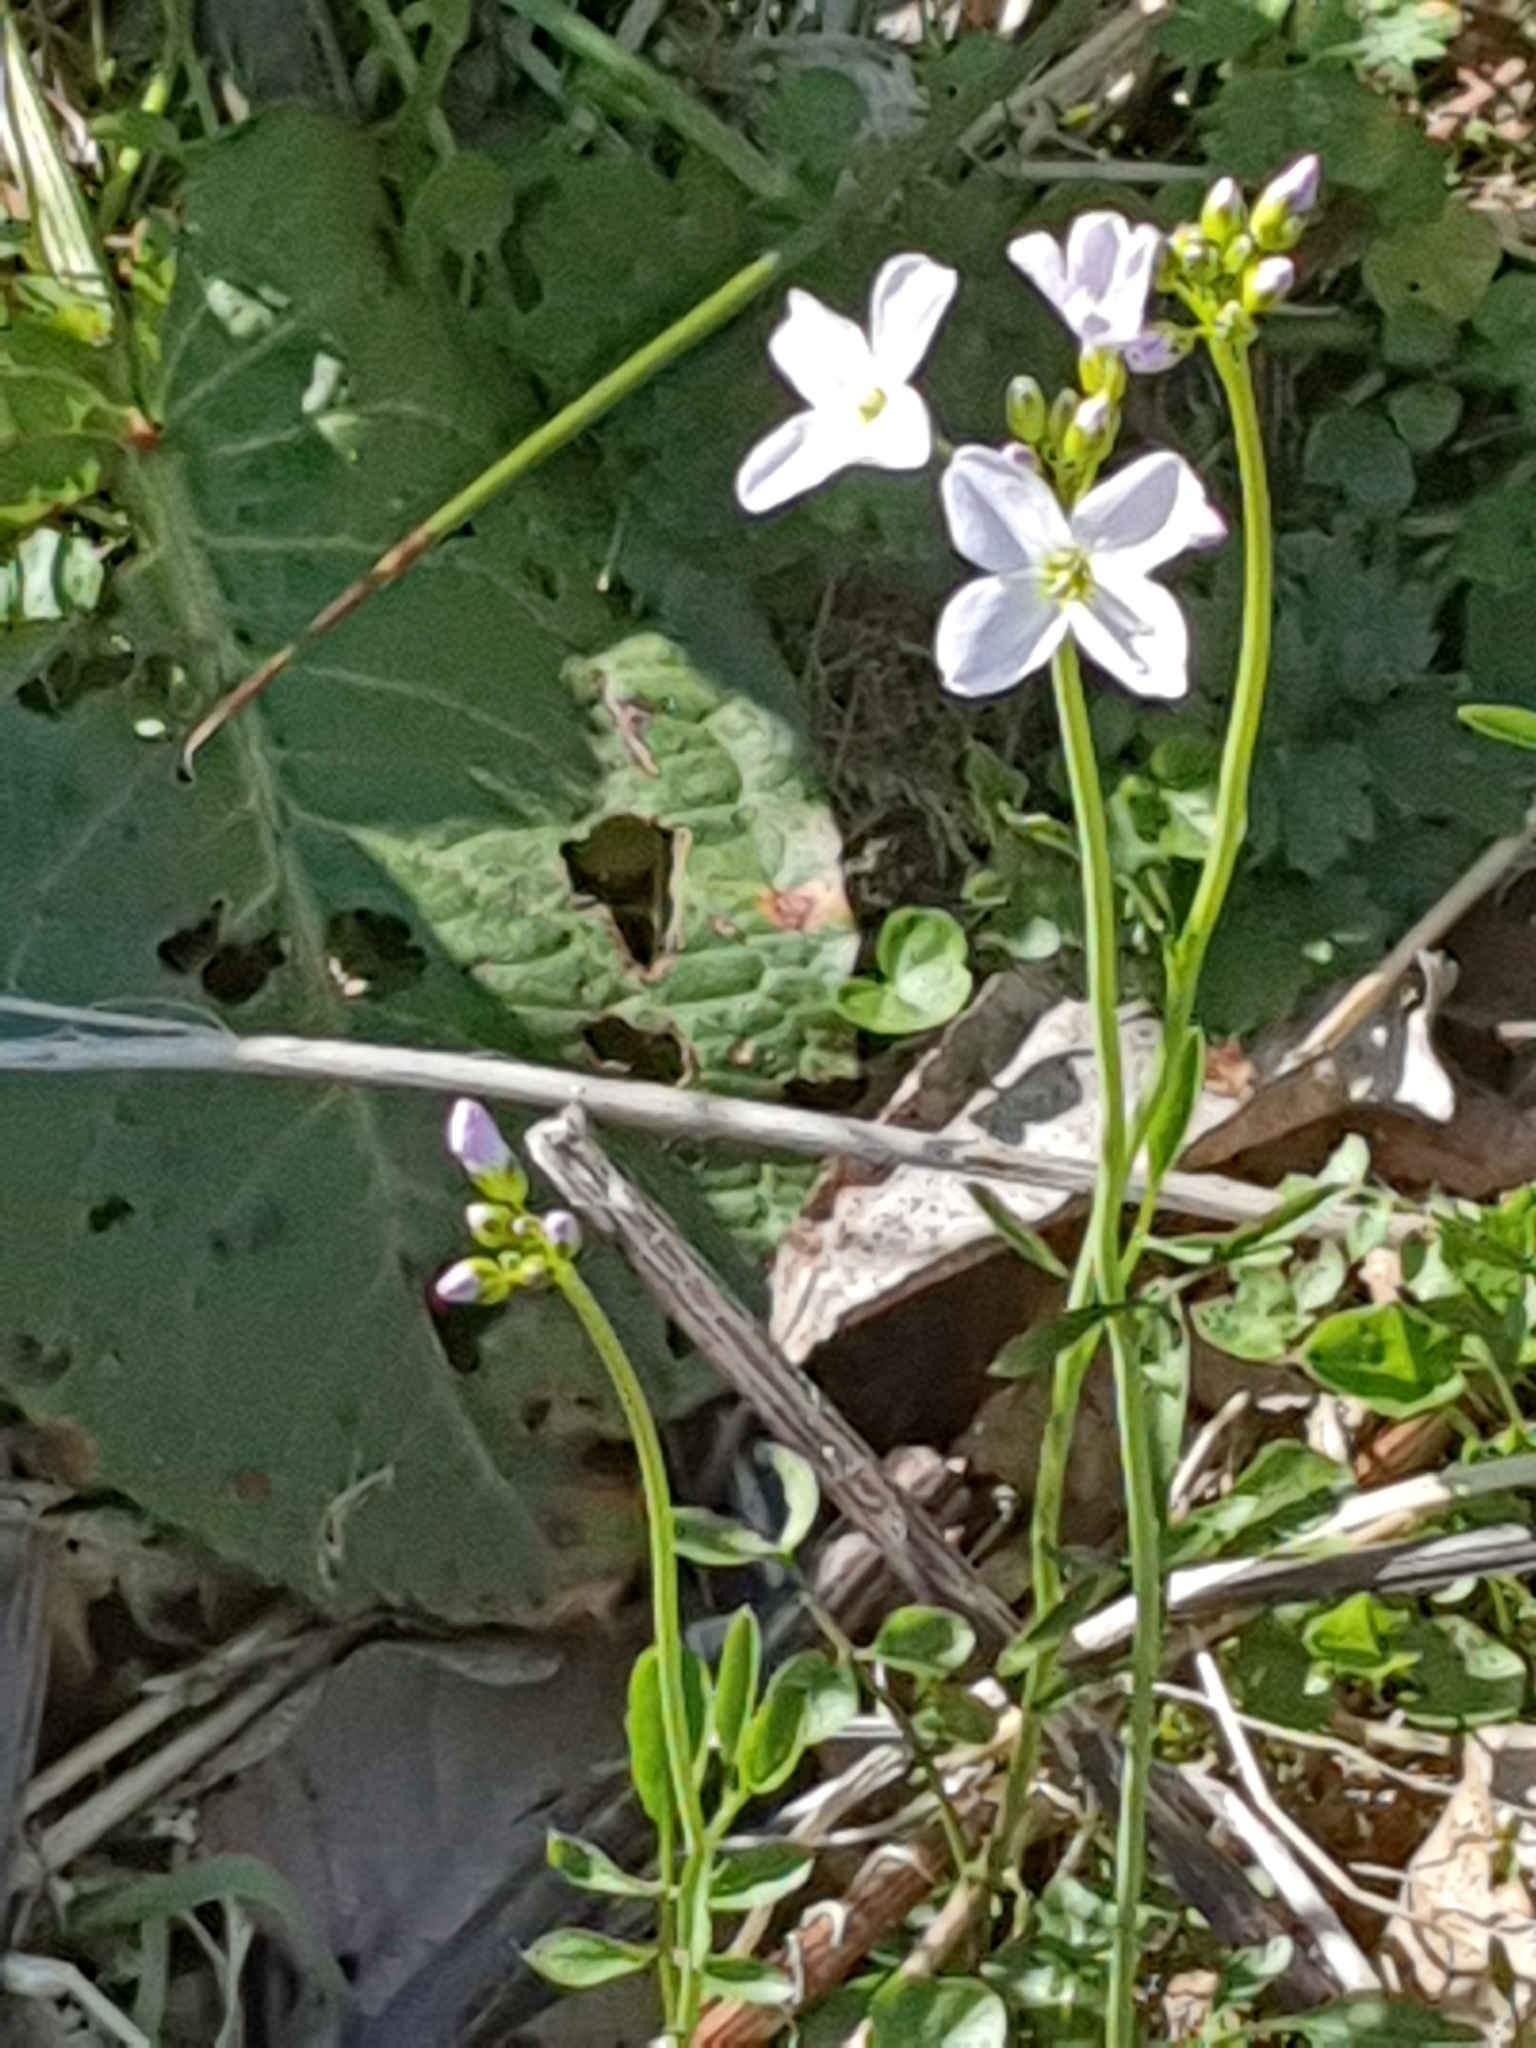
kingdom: Plantae
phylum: Tracheophyta
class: Magnoliopsida
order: Brassicales
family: Brassicaceae
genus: Cardamine
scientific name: Cardamine pratensis
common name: Cuckoo flower
